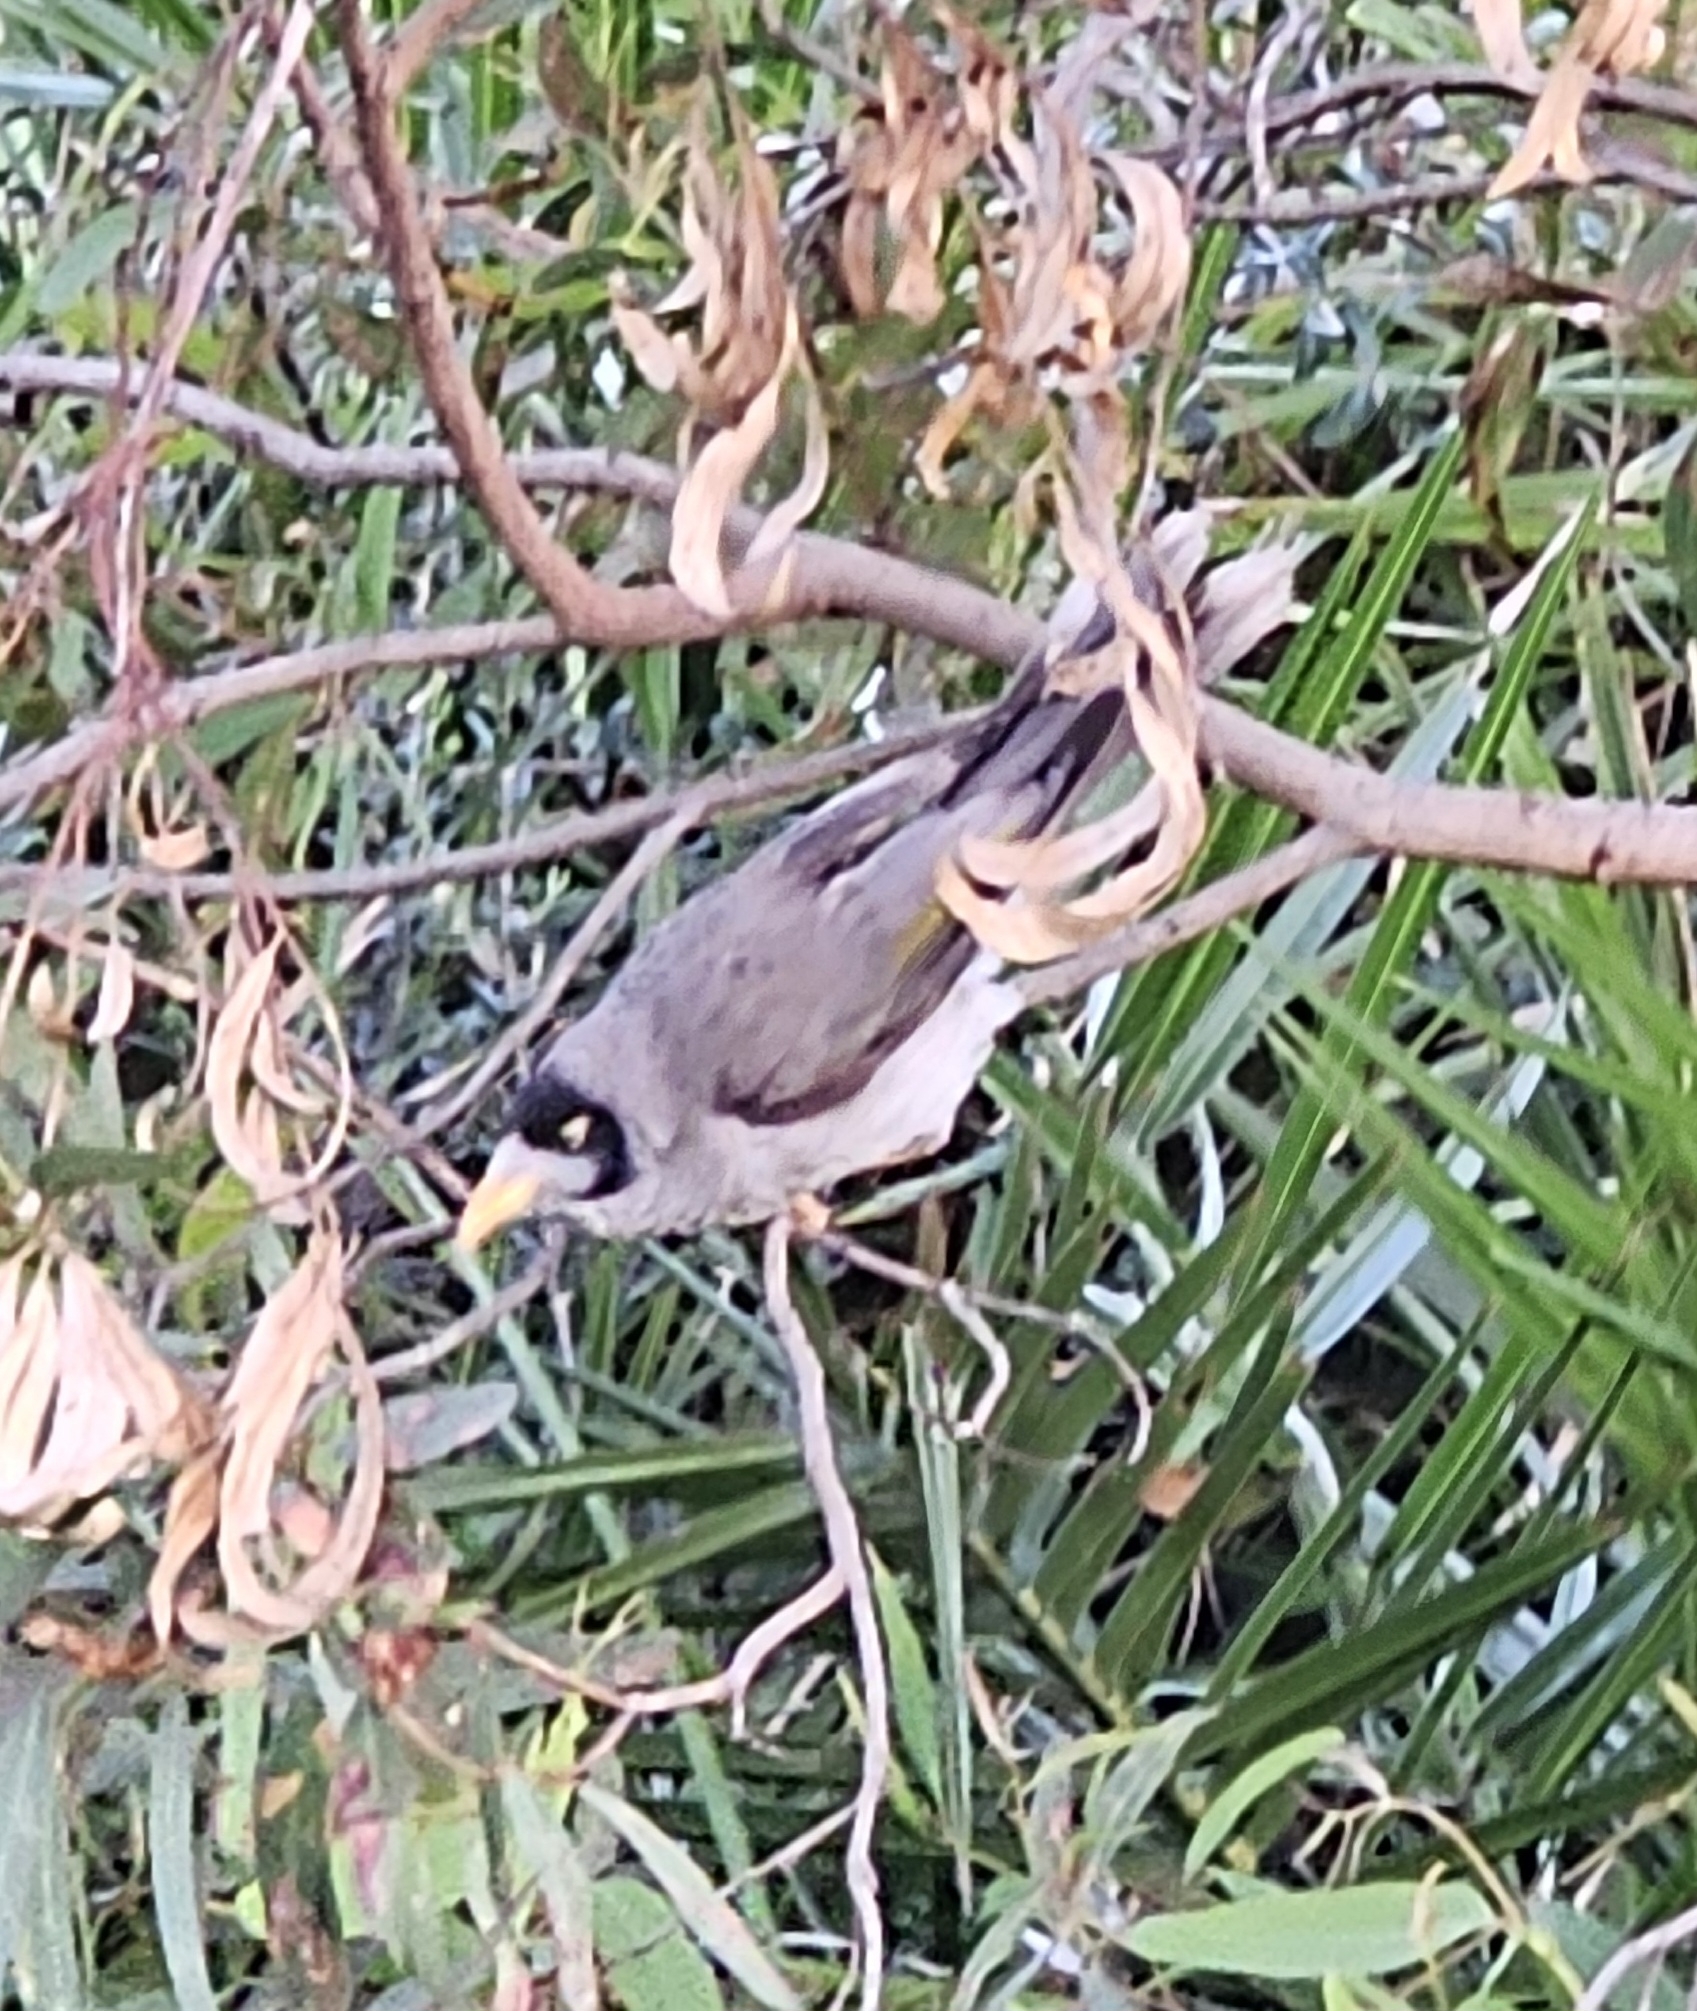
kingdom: Animalia
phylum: Chordata
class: Aves
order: Passeriformes
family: Meliphagidae
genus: Manorina
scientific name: Manorina melanocephala
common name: Noisy miner
